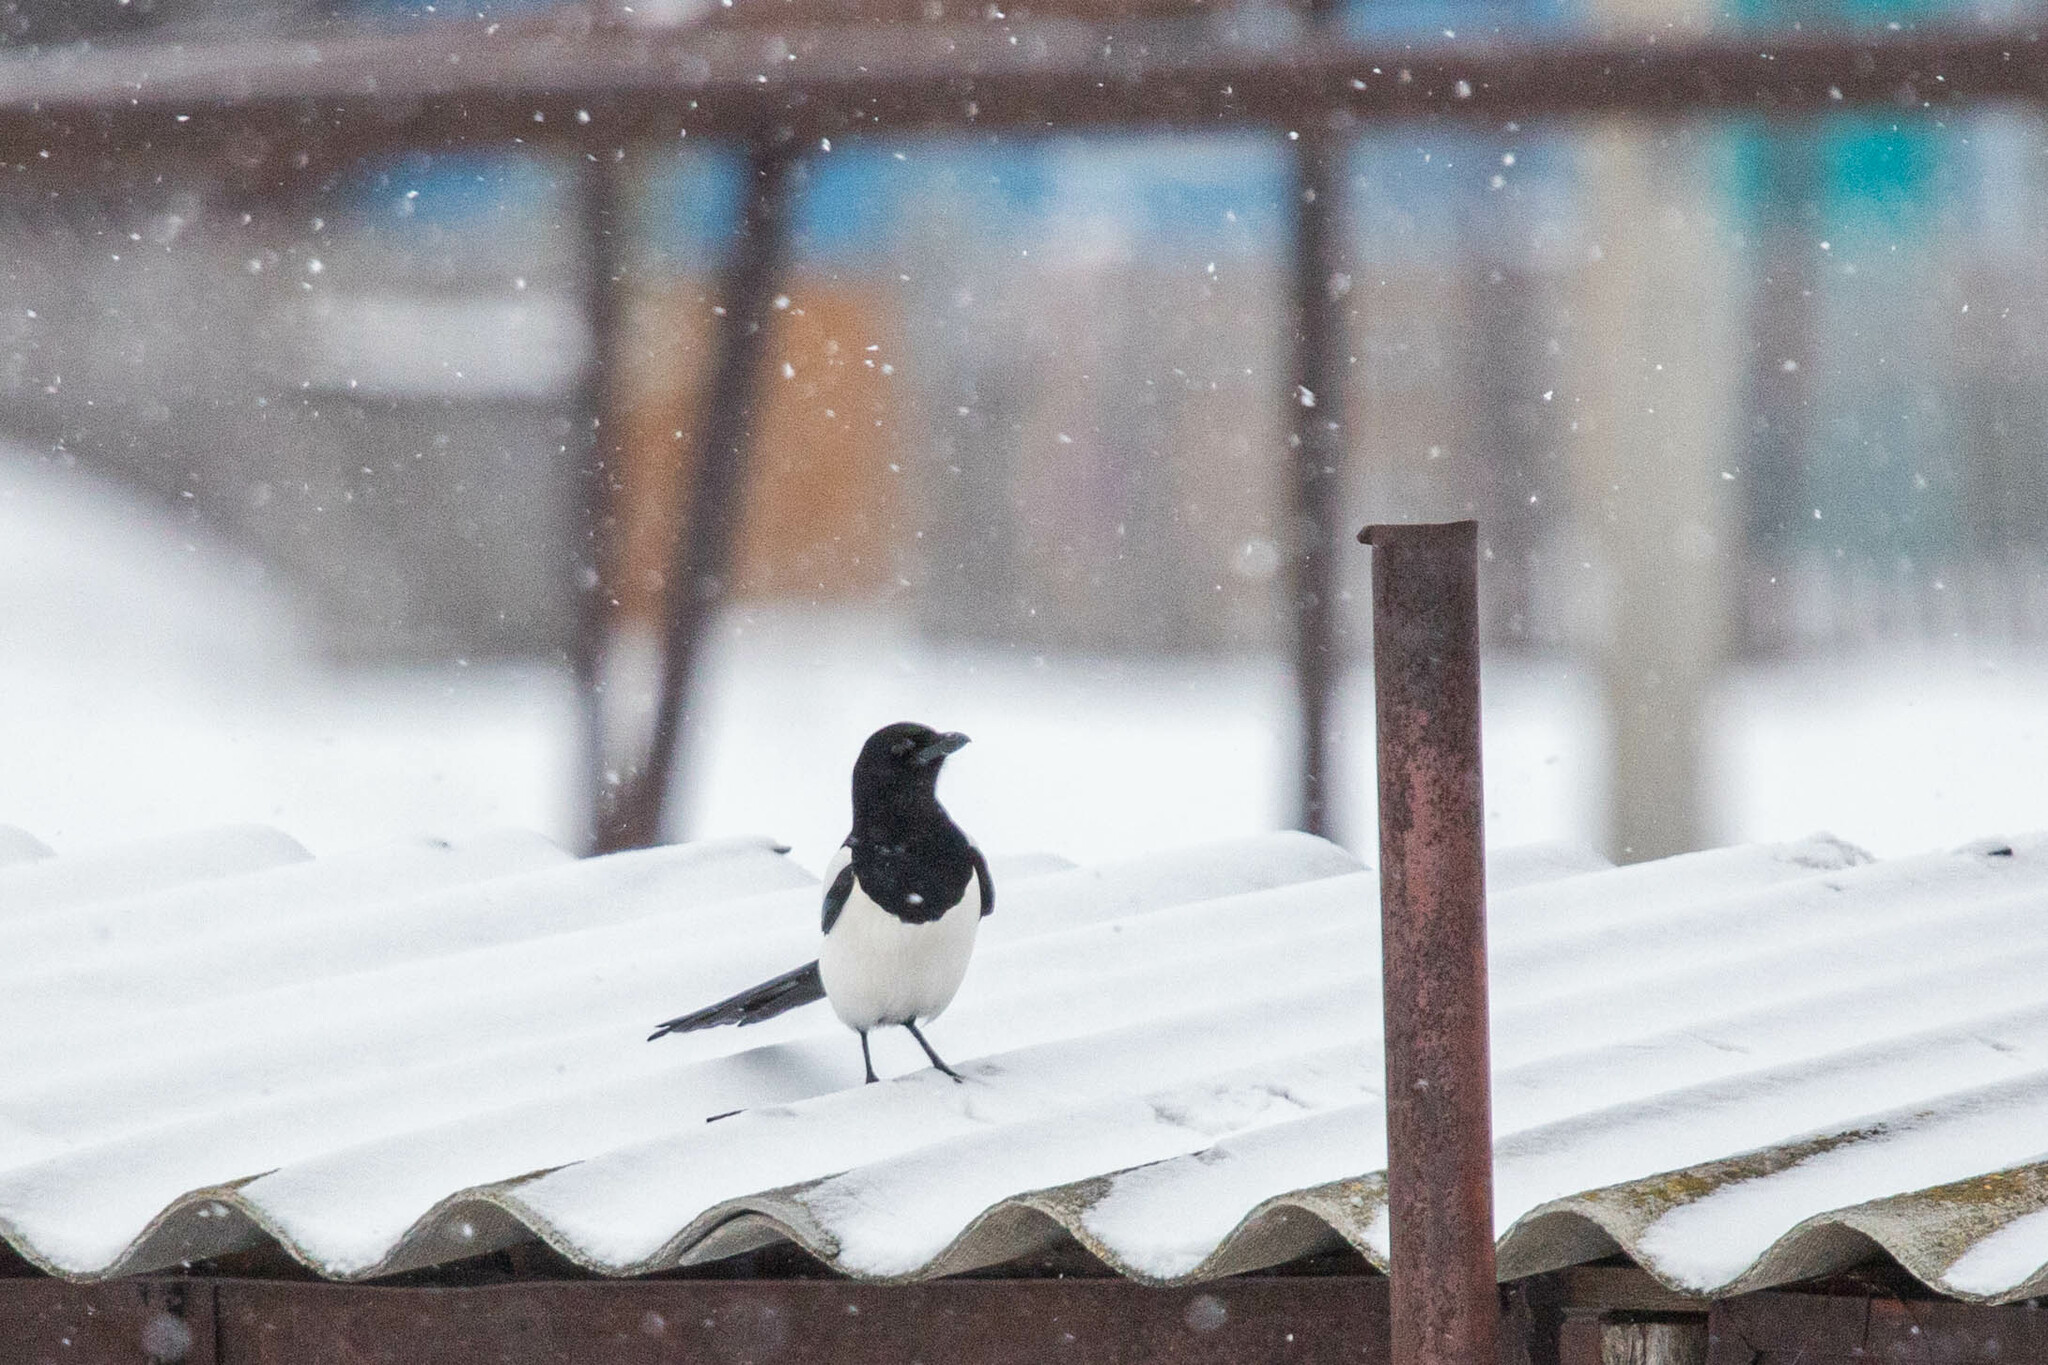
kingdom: Animalia
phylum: Chordata
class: Aves
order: Passeriformes
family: Corvidae
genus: Pica
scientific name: Pica pica
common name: Eurasian magpie
